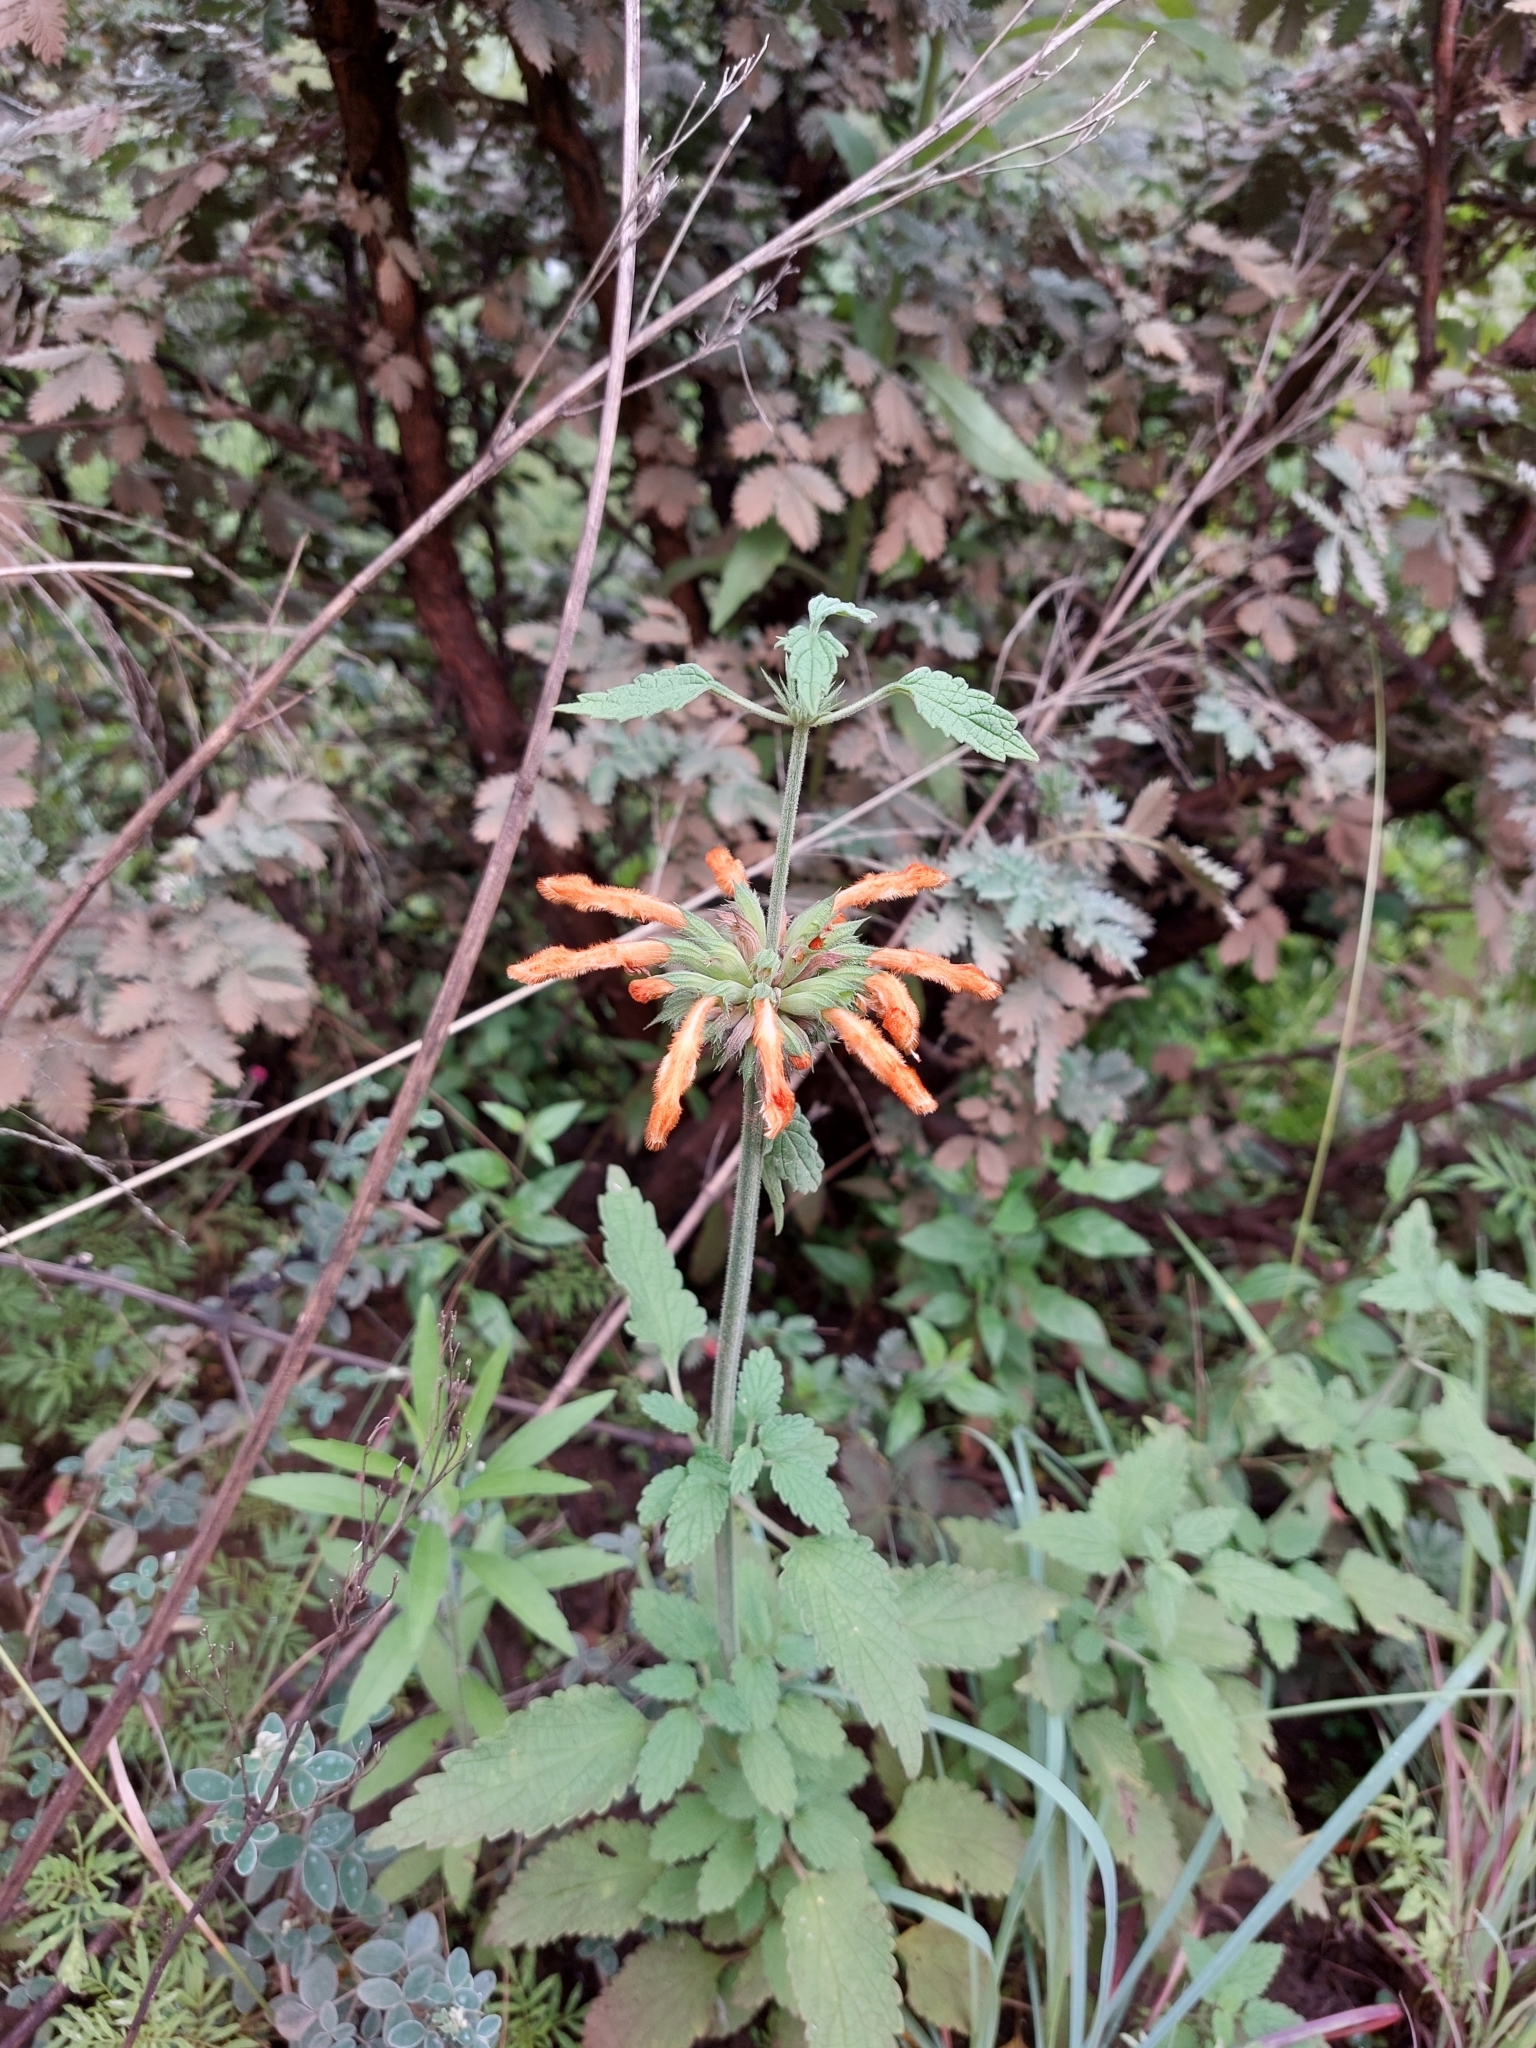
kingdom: Plantae
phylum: Tracheophyta
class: Magnoliopsida
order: Lamiales
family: Lamiaceae
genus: Leonotis
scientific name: Leonotis ocymifolia
